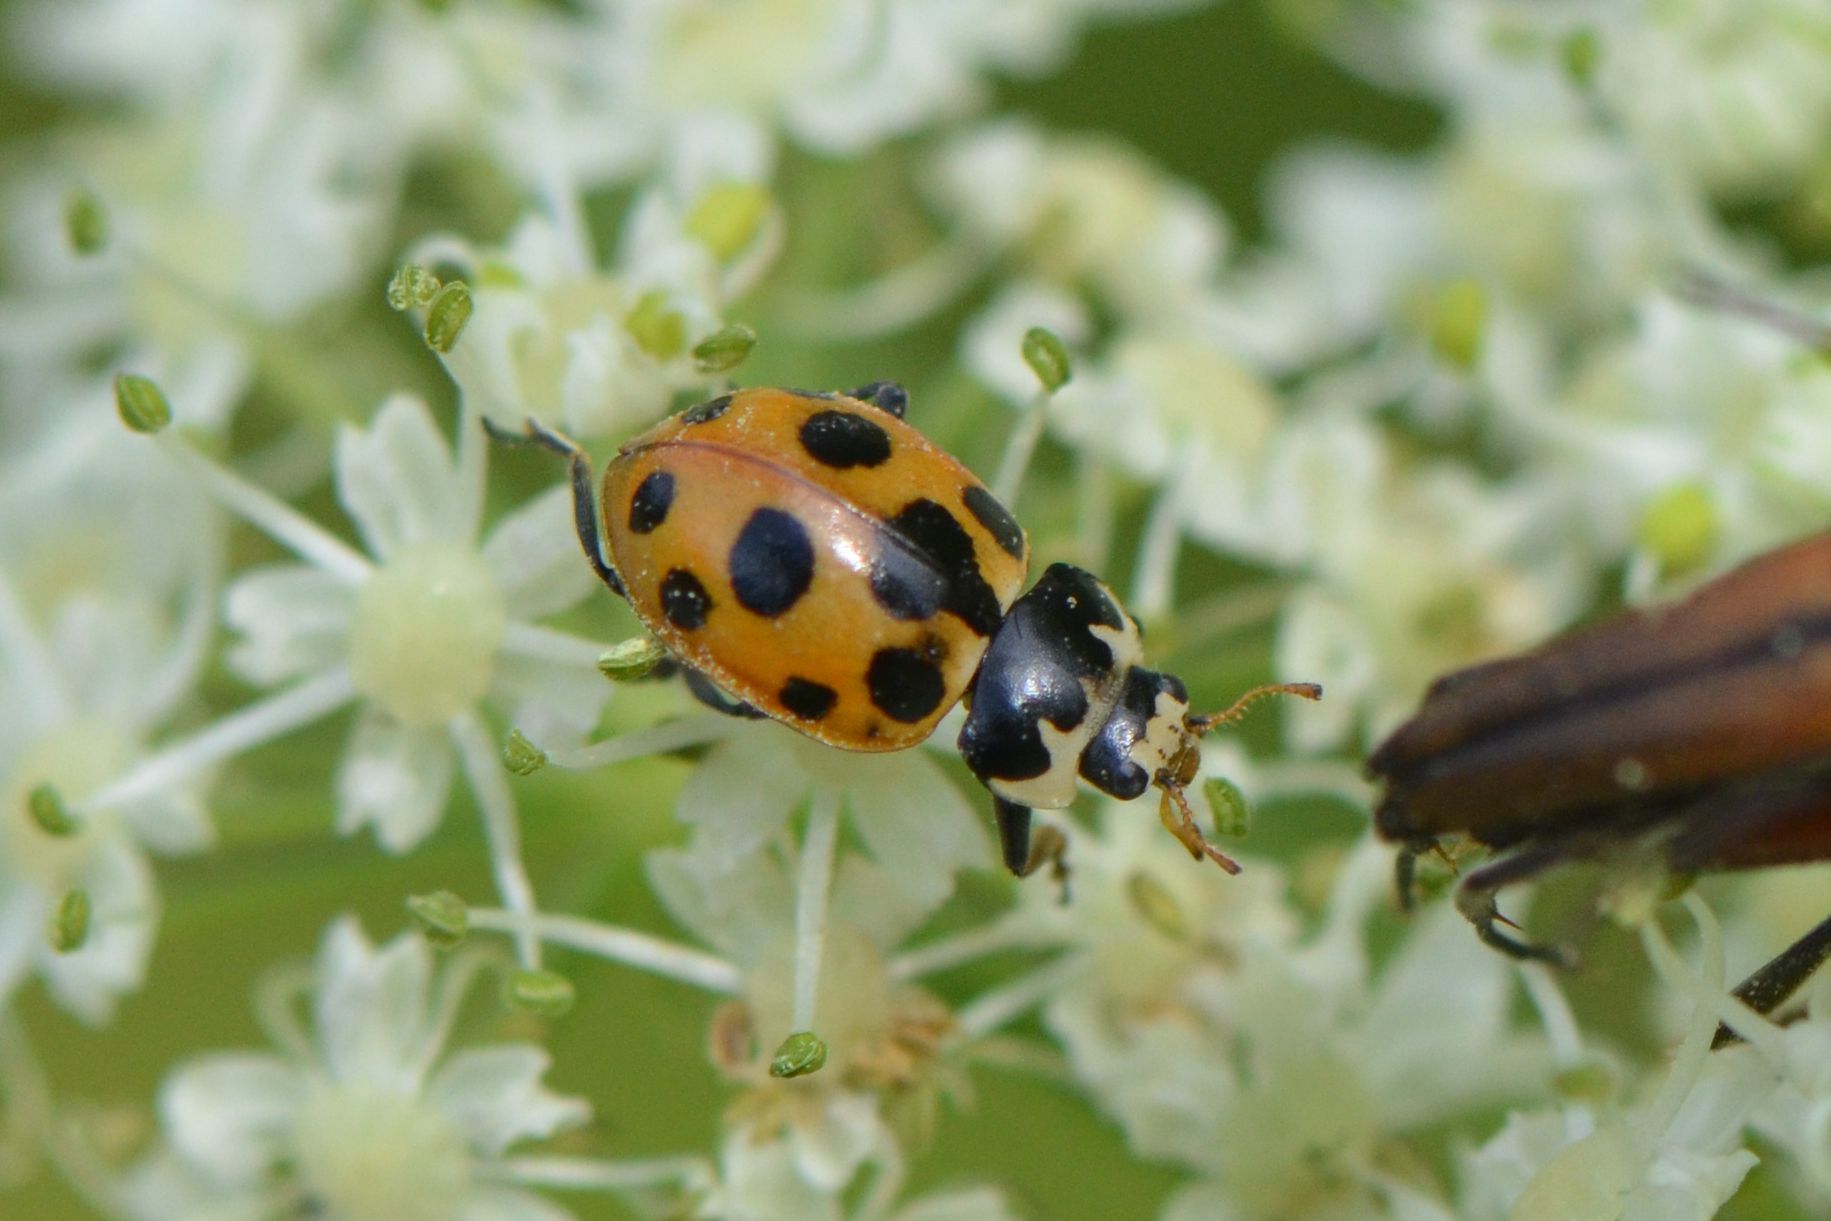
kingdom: Animalia
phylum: Arthropoda
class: Insecta
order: Coleoptera
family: Coccinellidae
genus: Ceratomegilla
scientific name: Ceratomegilla notata
